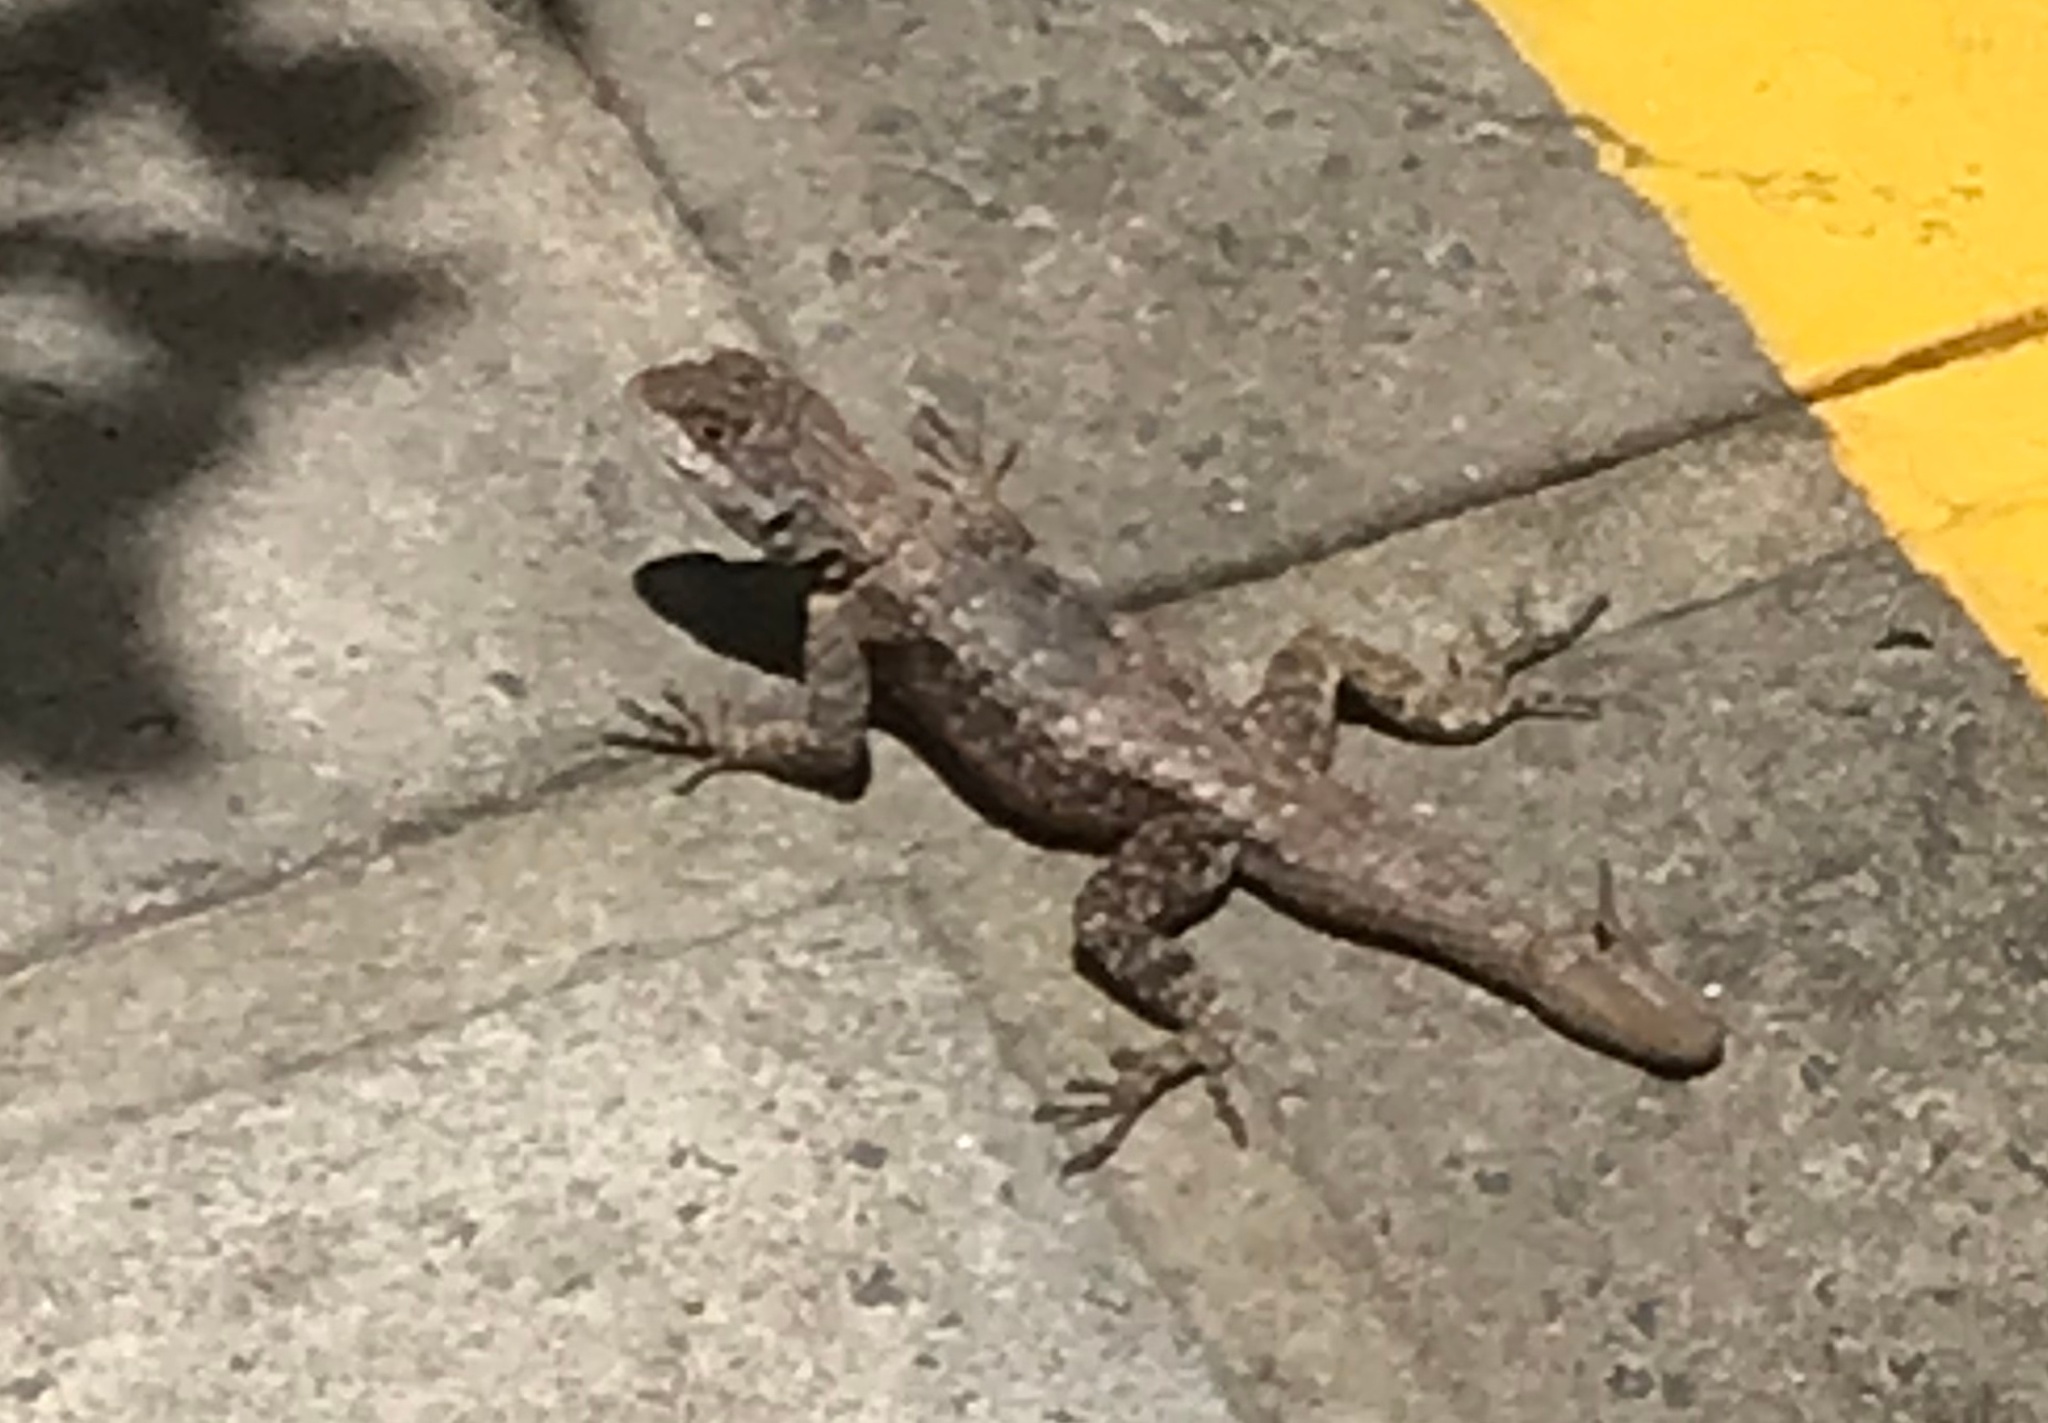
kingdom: Animalia
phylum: Chordata
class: Squamata
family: Tropiduridae
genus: Tropidurus
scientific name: Tropidurus hispidus
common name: Peters' lava lizard
